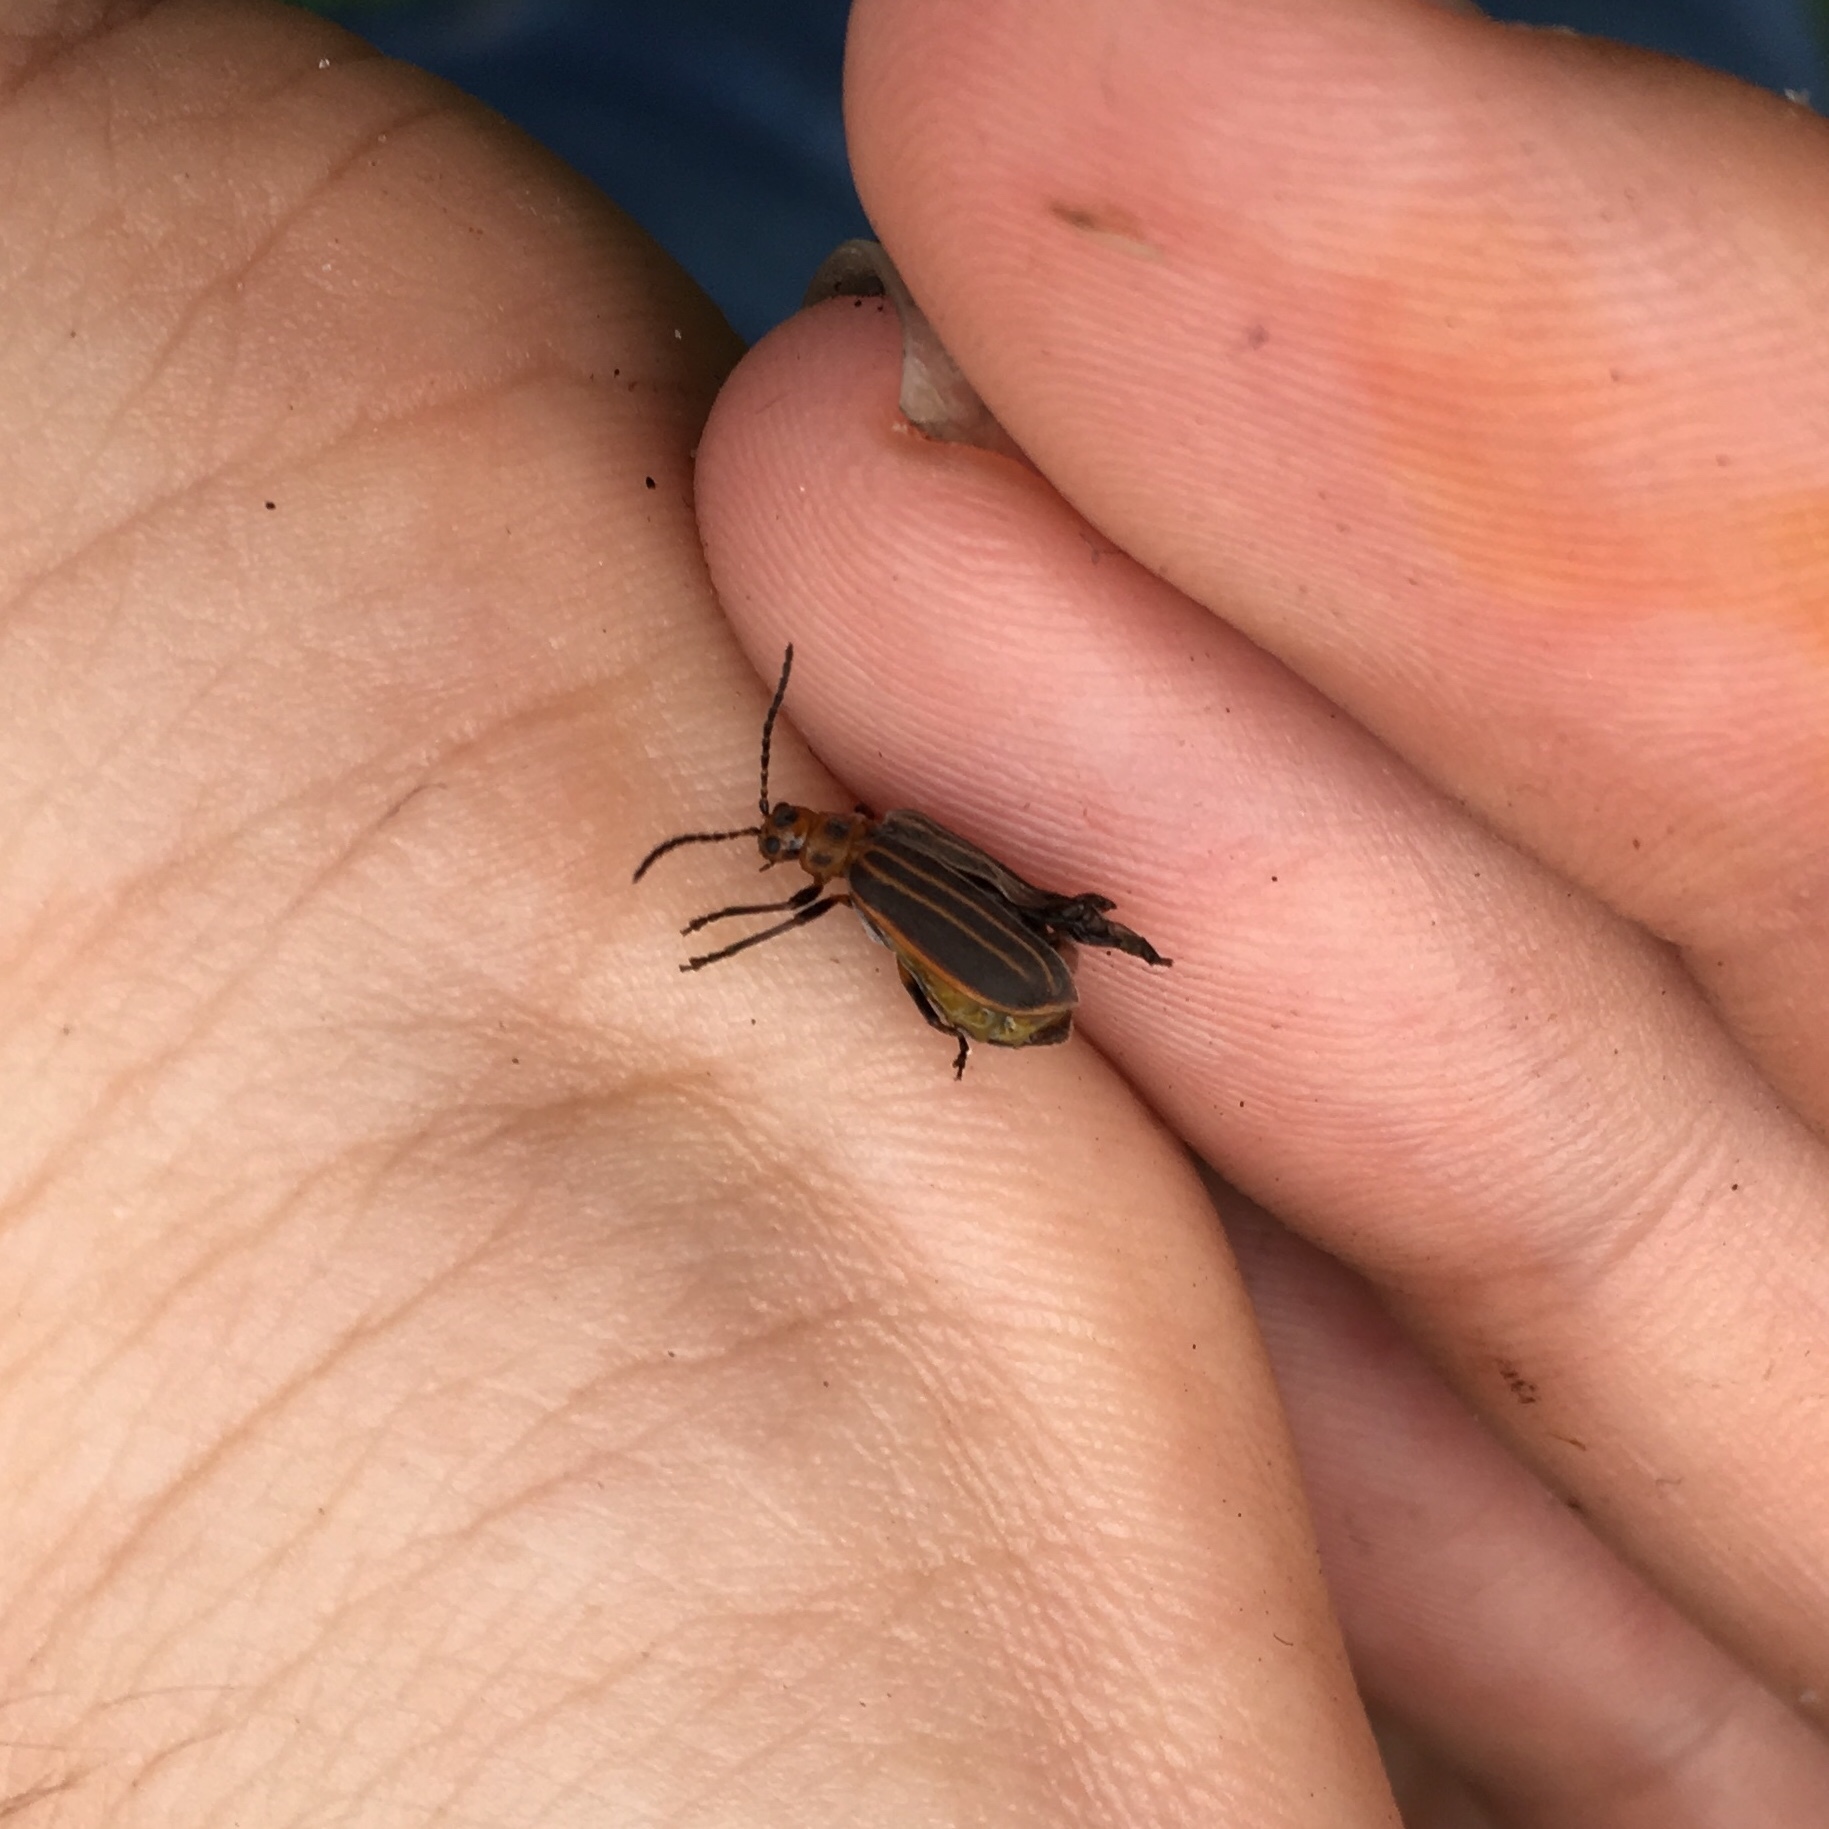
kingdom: Animalia
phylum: Arthropoda
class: Insecta
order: Coleoptera
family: Chrysomelidae
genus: Neolochmaea
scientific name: Neolochmaea dilatipennis
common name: Skeletonizing leaf beetle
